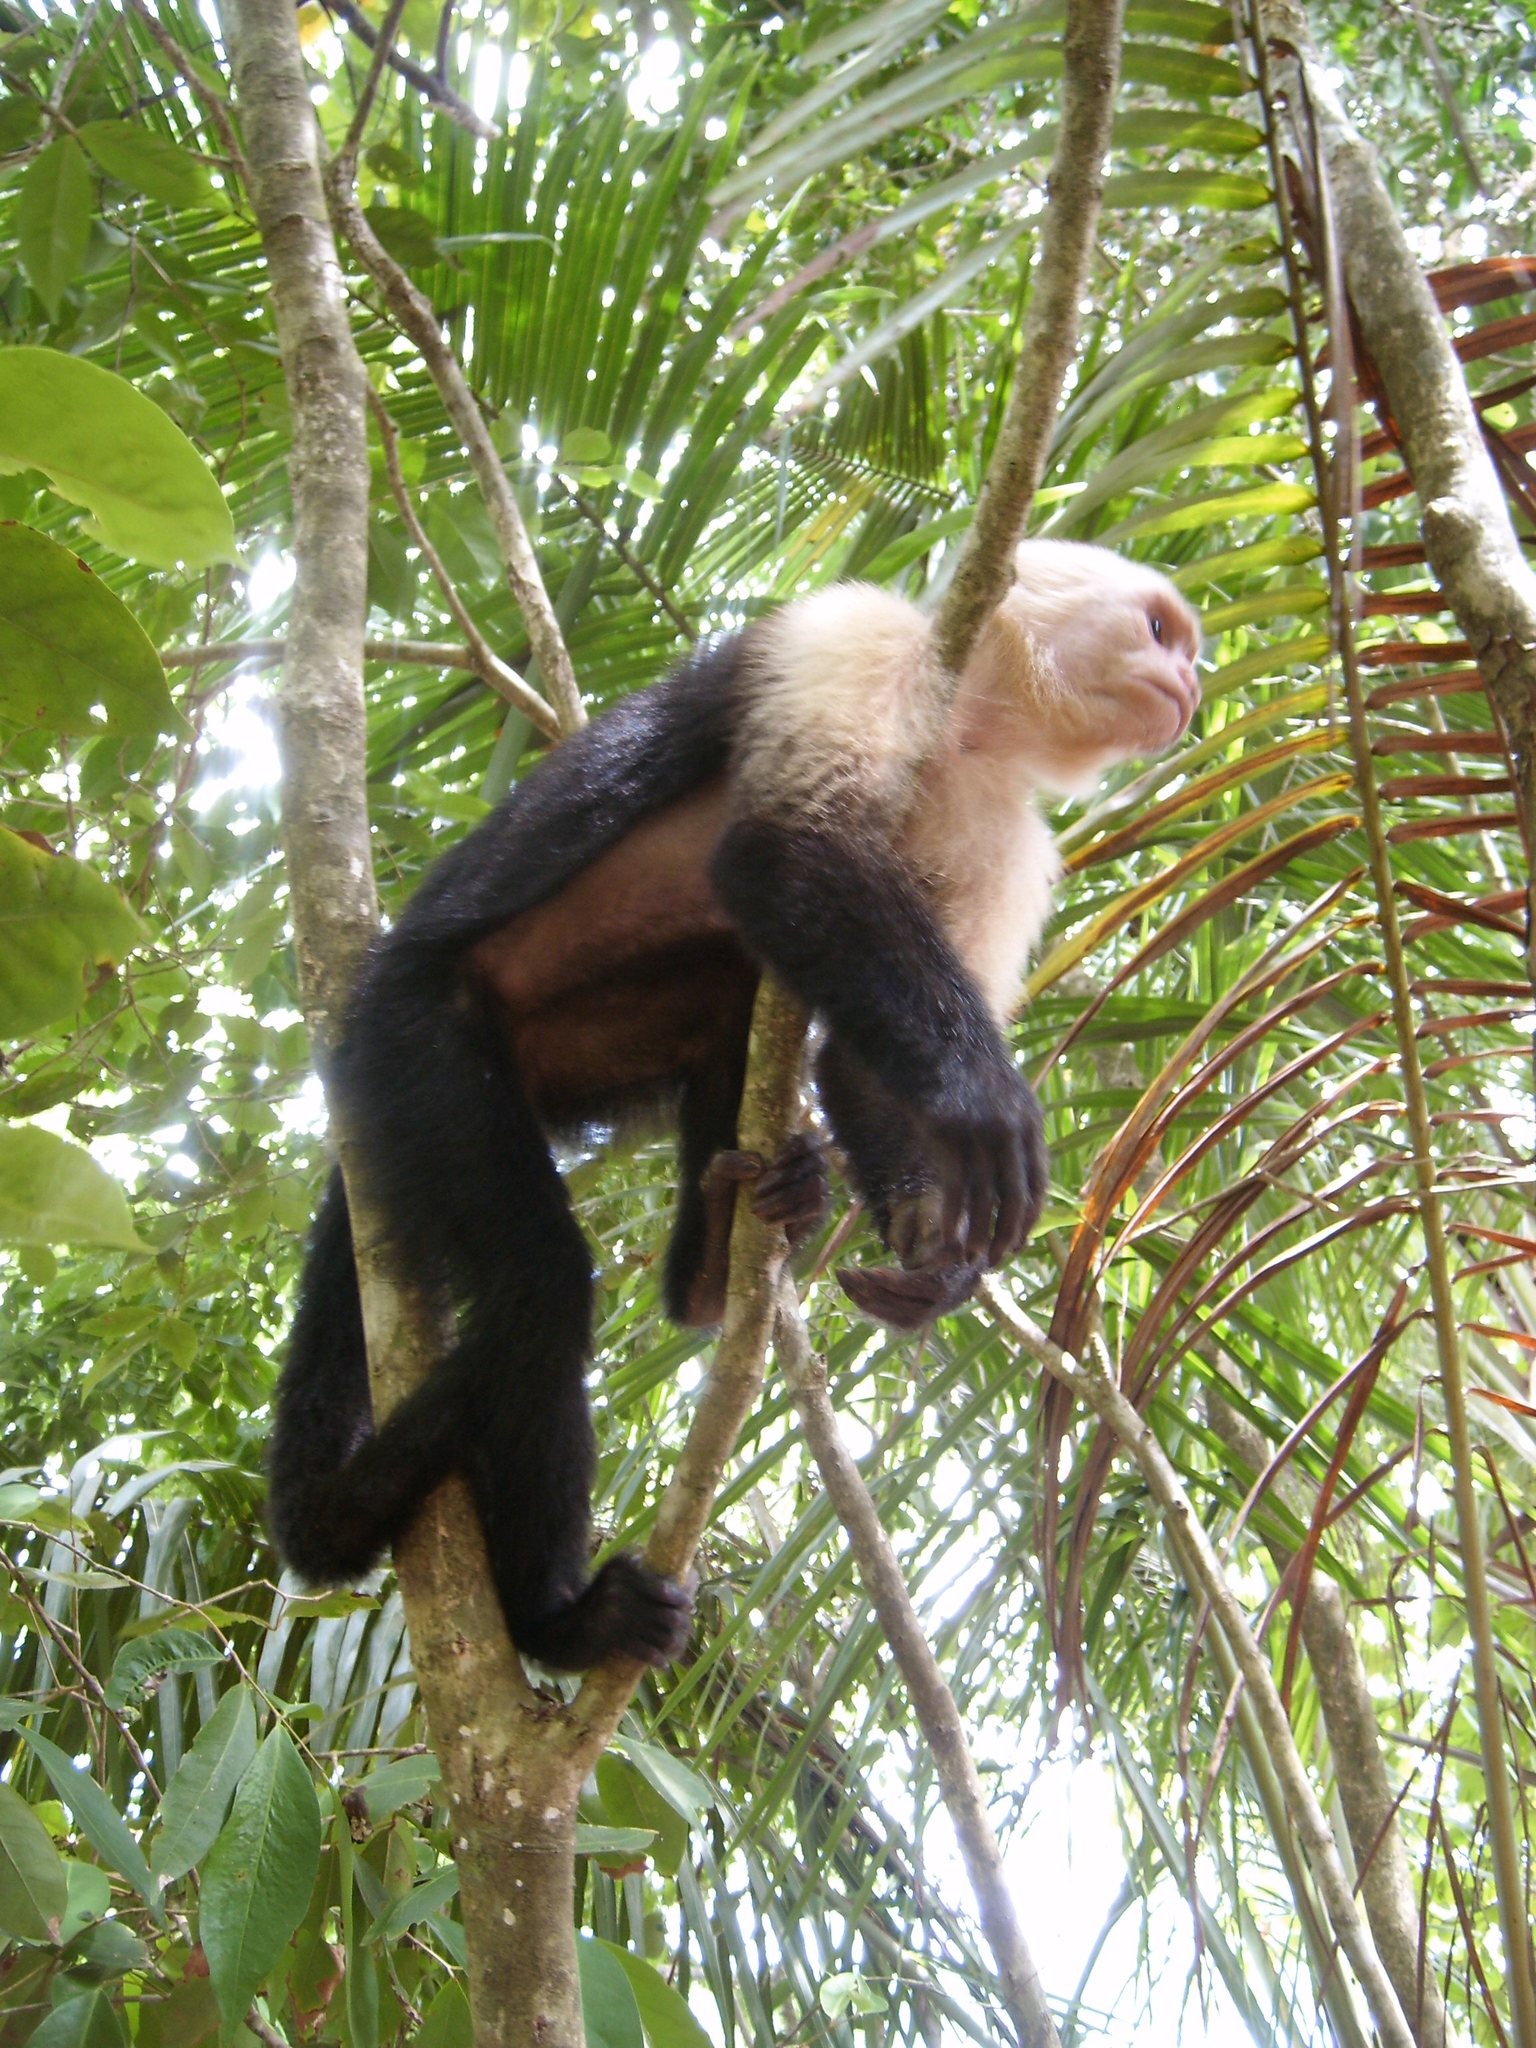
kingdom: Animalia
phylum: Chordata
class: Mammalia
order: Primates
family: Cebidae
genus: Cebus
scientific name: Cebus imitator
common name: Panamanian white-faced capuchin
